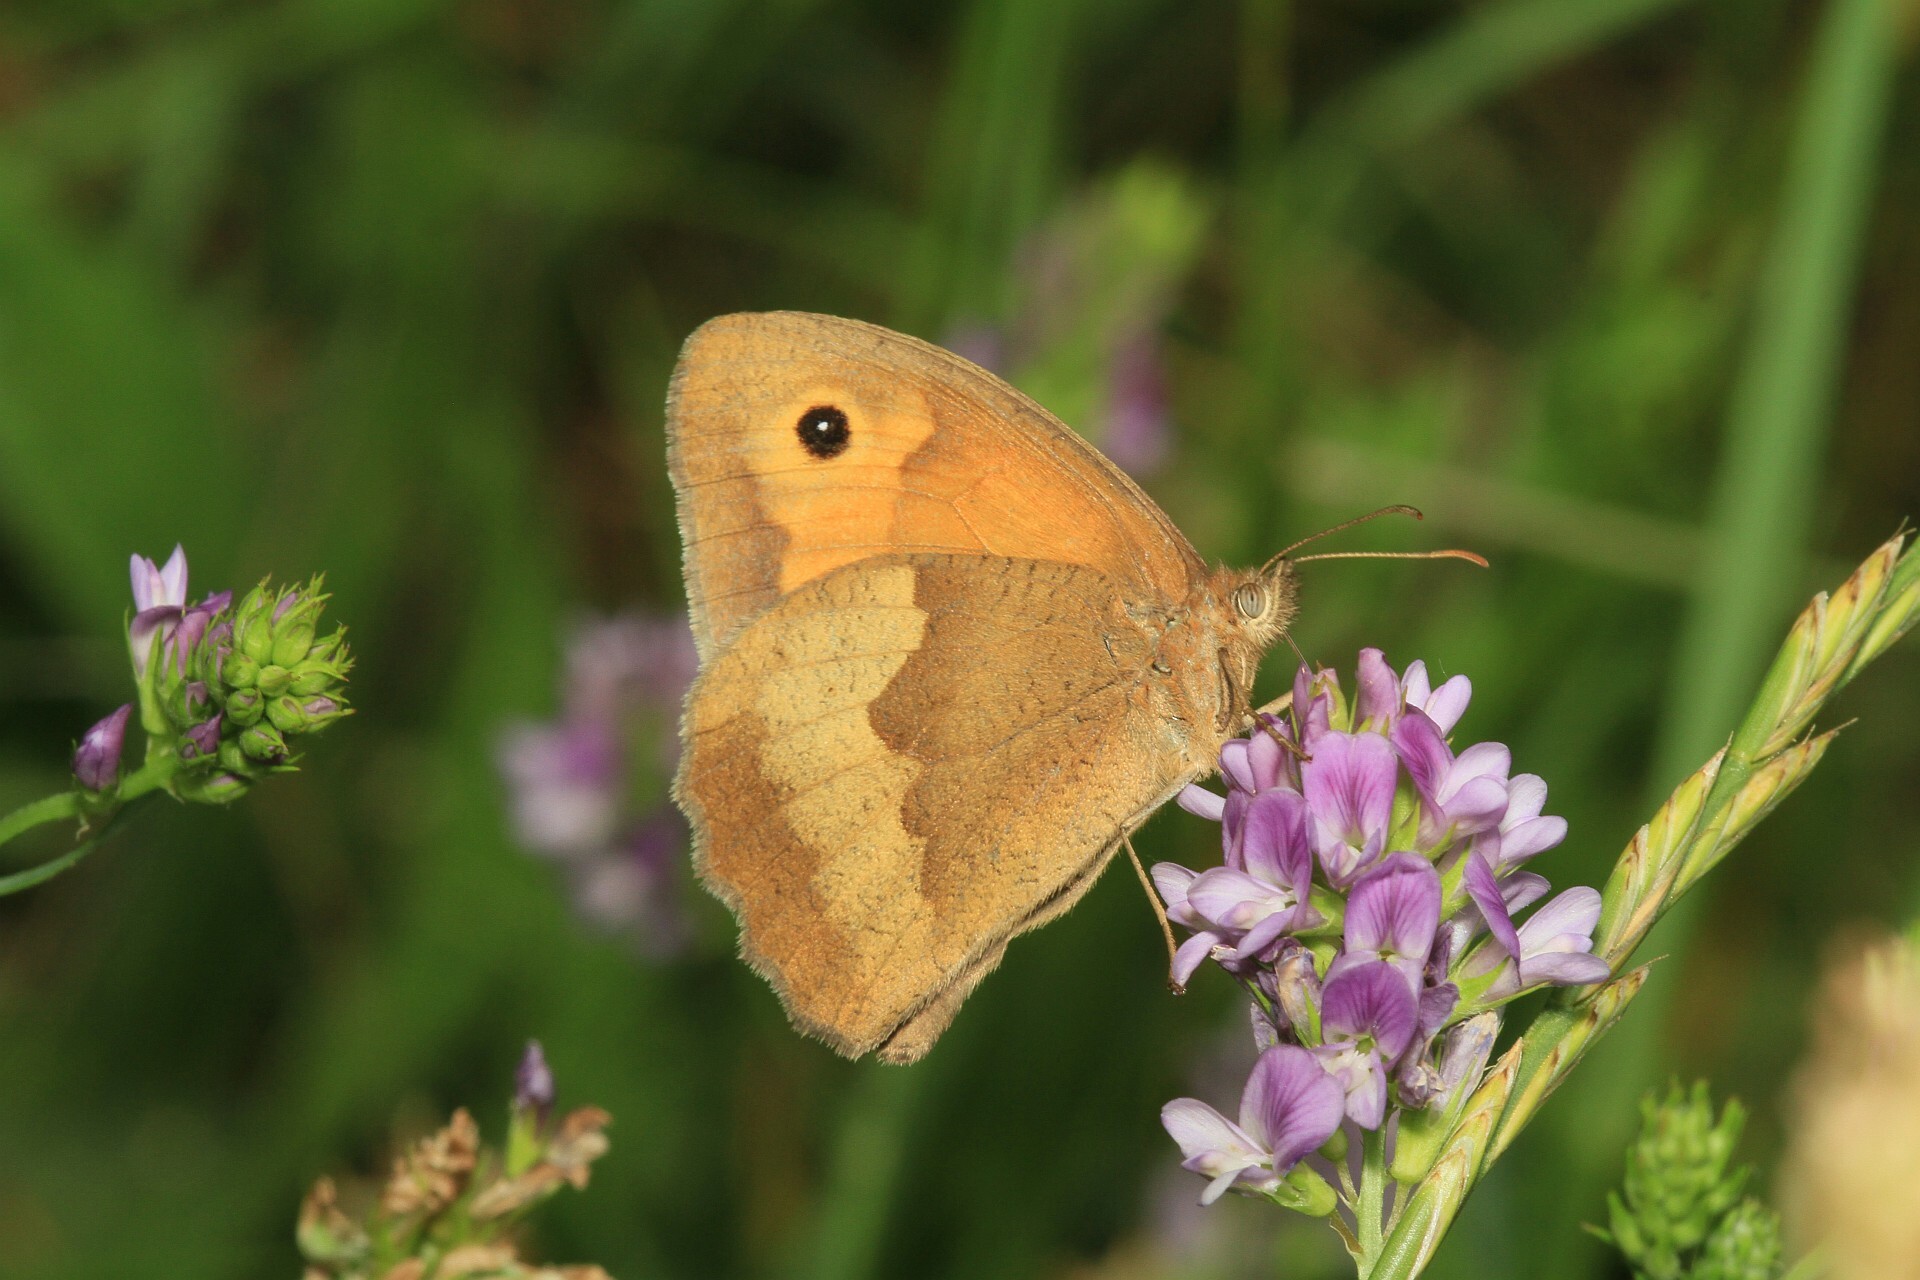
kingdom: Animalia
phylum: Arthropoda
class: Insecta
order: Lepidoptera
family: Nymphalidae
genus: Maniola
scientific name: Maniola jurtina
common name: Meadow brown
